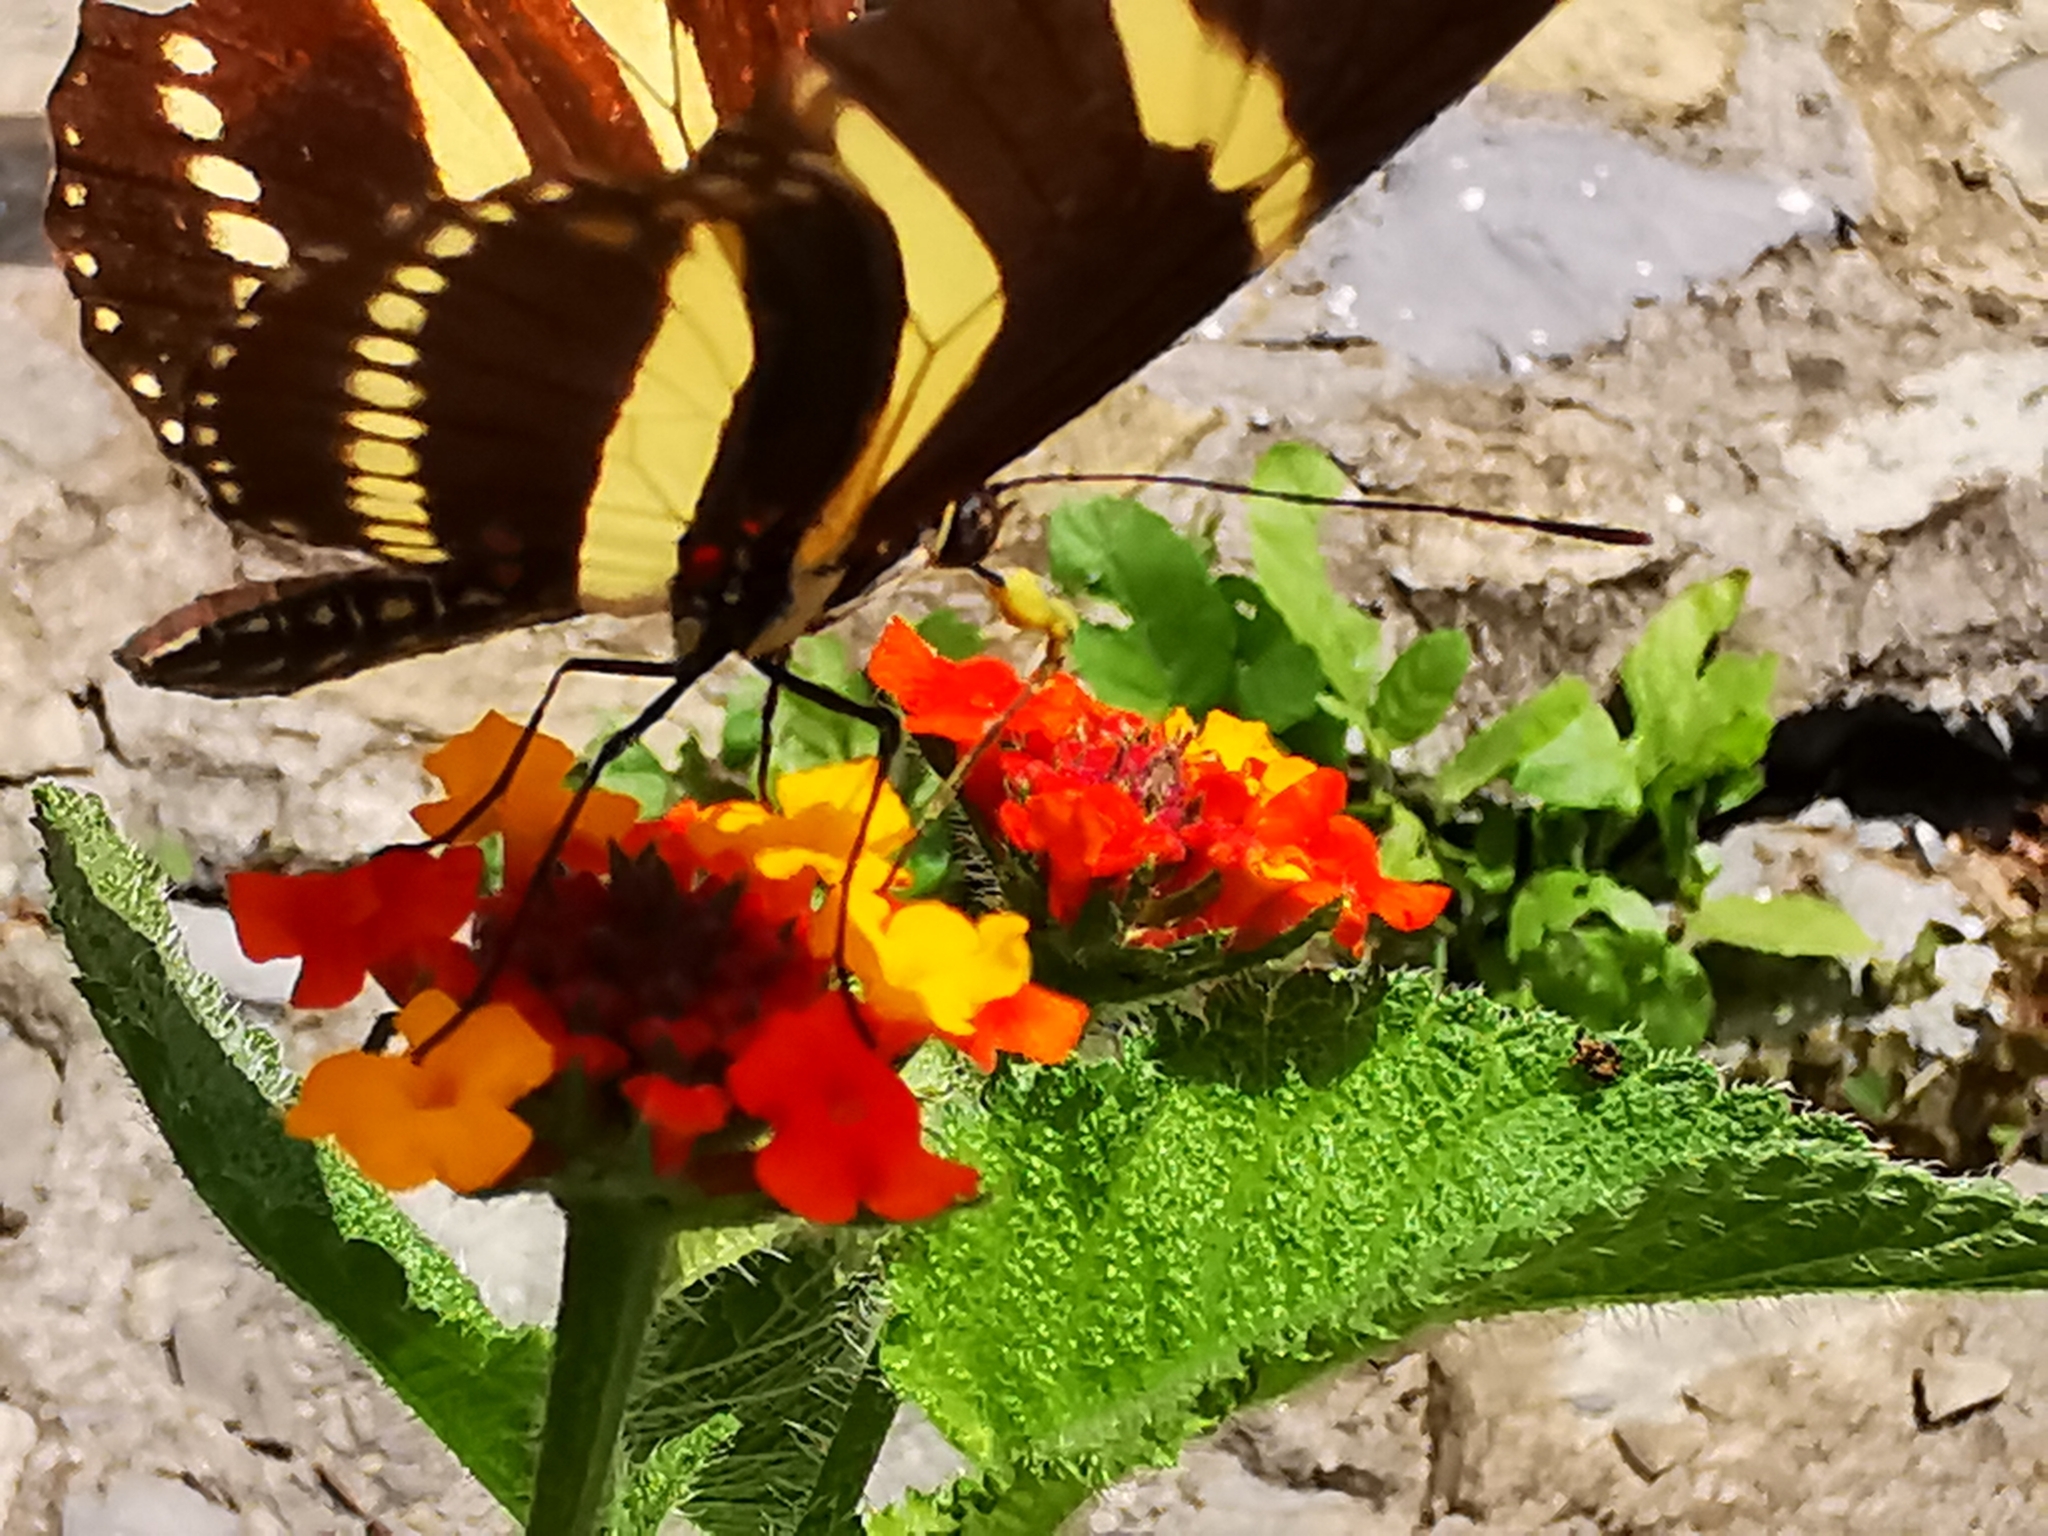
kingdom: Animalia
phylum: Arthropoda
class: Insecta
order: Lepidoptera
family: Nymphalidae
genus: Heliconius
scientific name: Heliconius charithonia
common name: Zebra long wing
